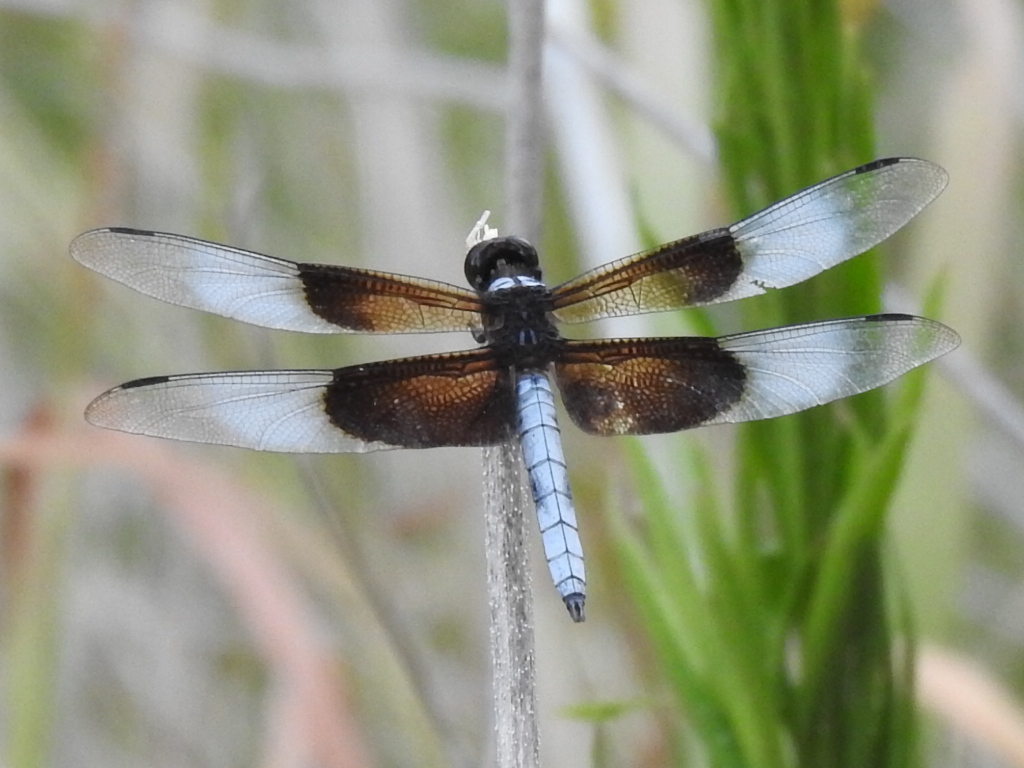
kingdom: Animalia
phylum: Arthropoda
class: Insecta
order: Odonata
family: Libellulidae
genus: Libellula
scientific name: Libellula luctuosa
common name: Widow skimmer
